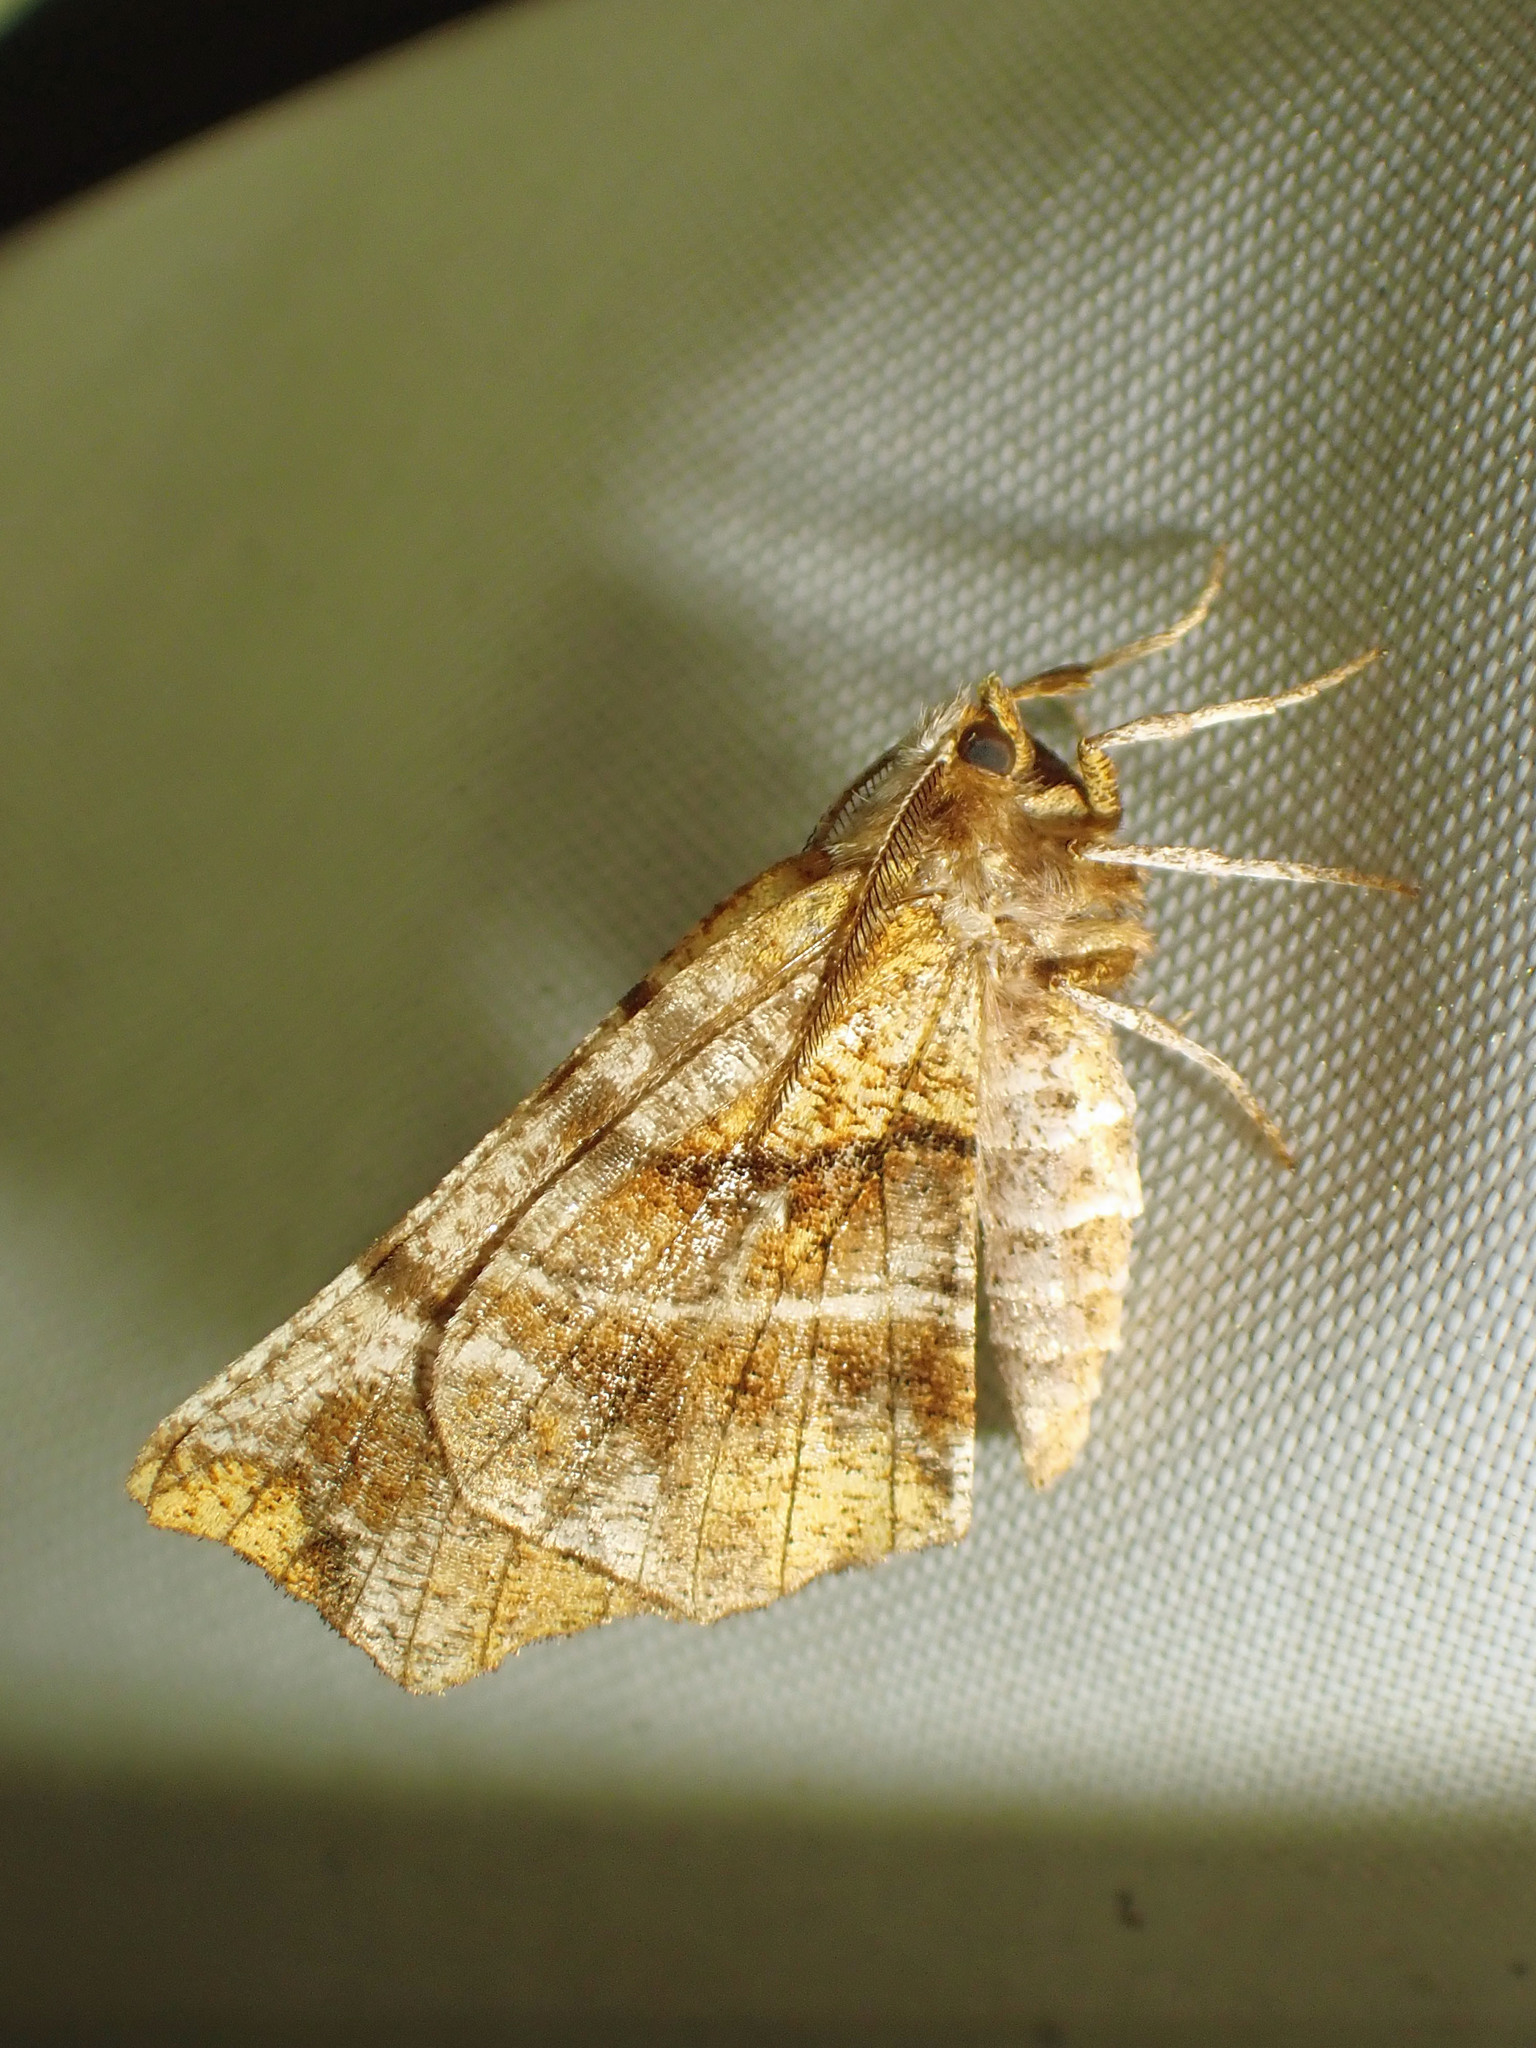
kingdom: Animalia
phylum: Arthropoda
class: Insecta
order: Lepidoptera
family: Geometridae
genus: Selenia
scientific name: Selenia alciphearia
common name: Brown-tipped thorn
